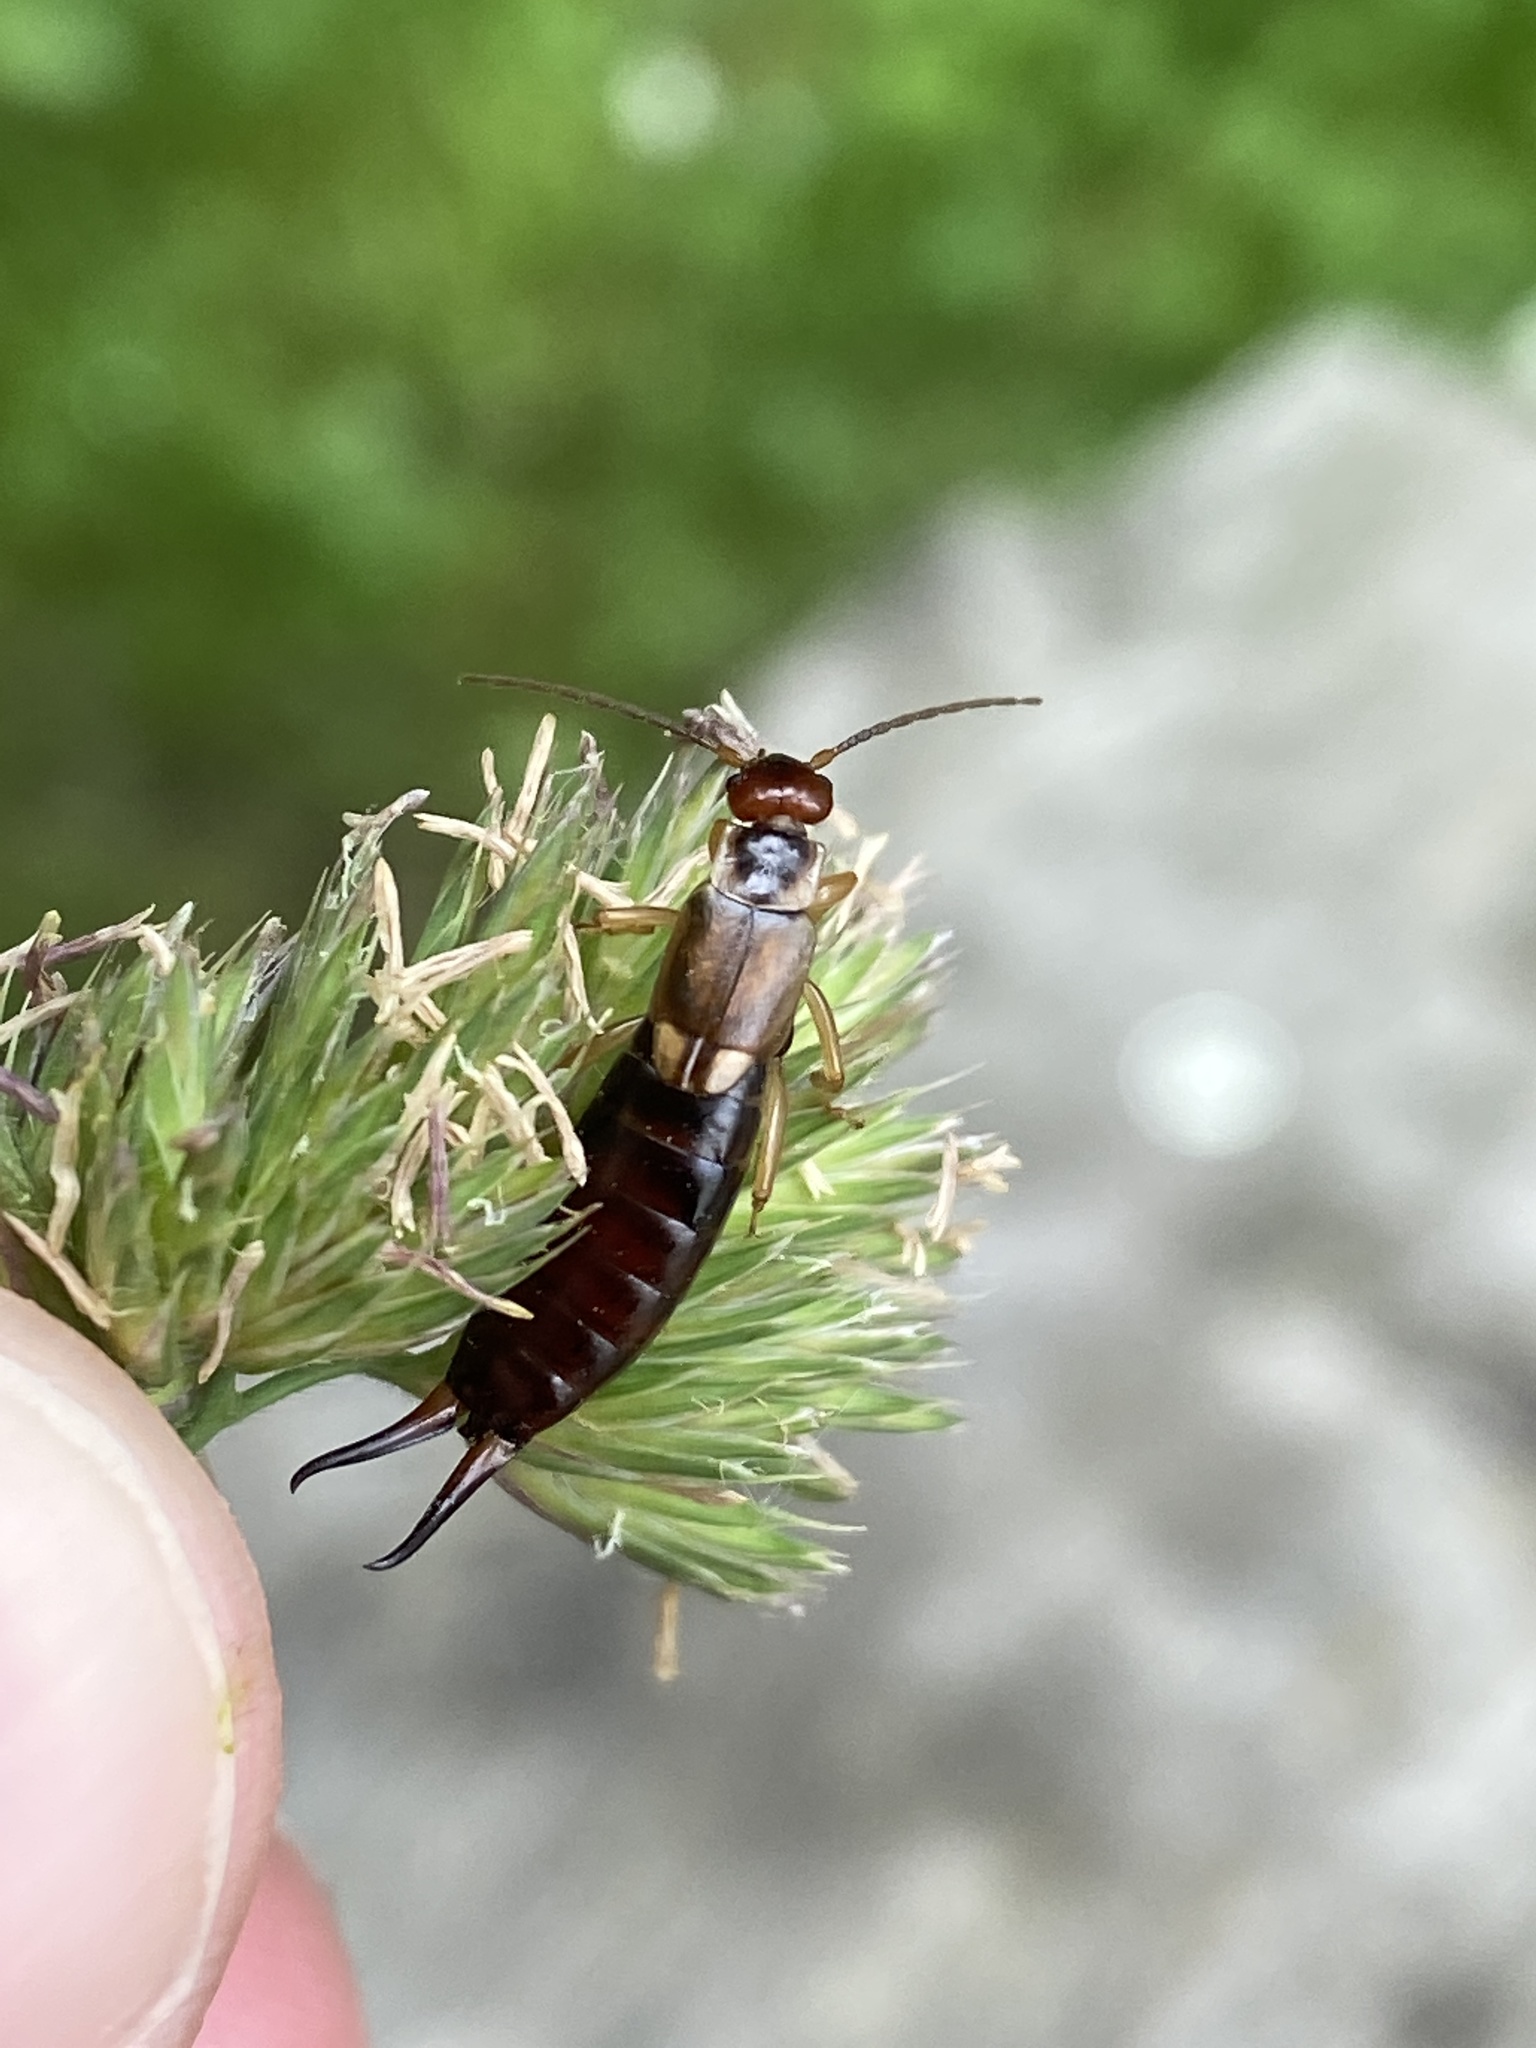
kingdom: Animalia
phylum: Arthropoda
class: Insecta
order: Dermaptera
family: Forficulidae
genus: Forficula
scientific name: Forficula
